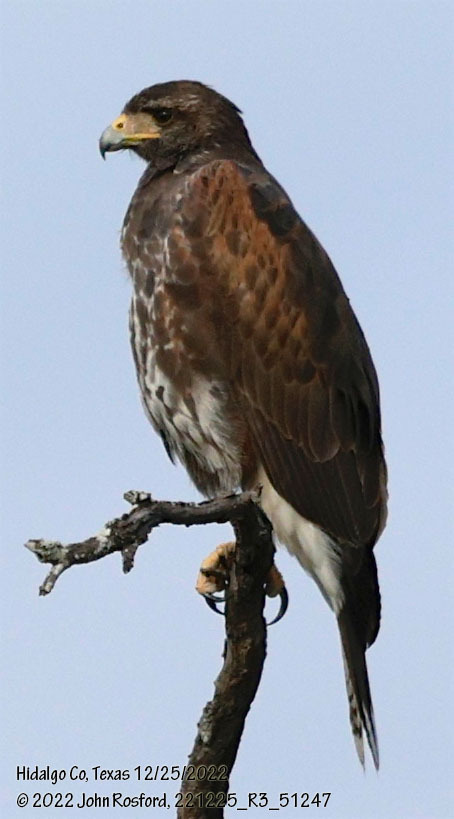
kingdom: Animalia
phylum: Chordata
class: Aves
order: Accipitriformes
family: Accipitridae
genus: Parabuteo
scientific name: Parabuteo unicinctus
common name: Harris's hawk
